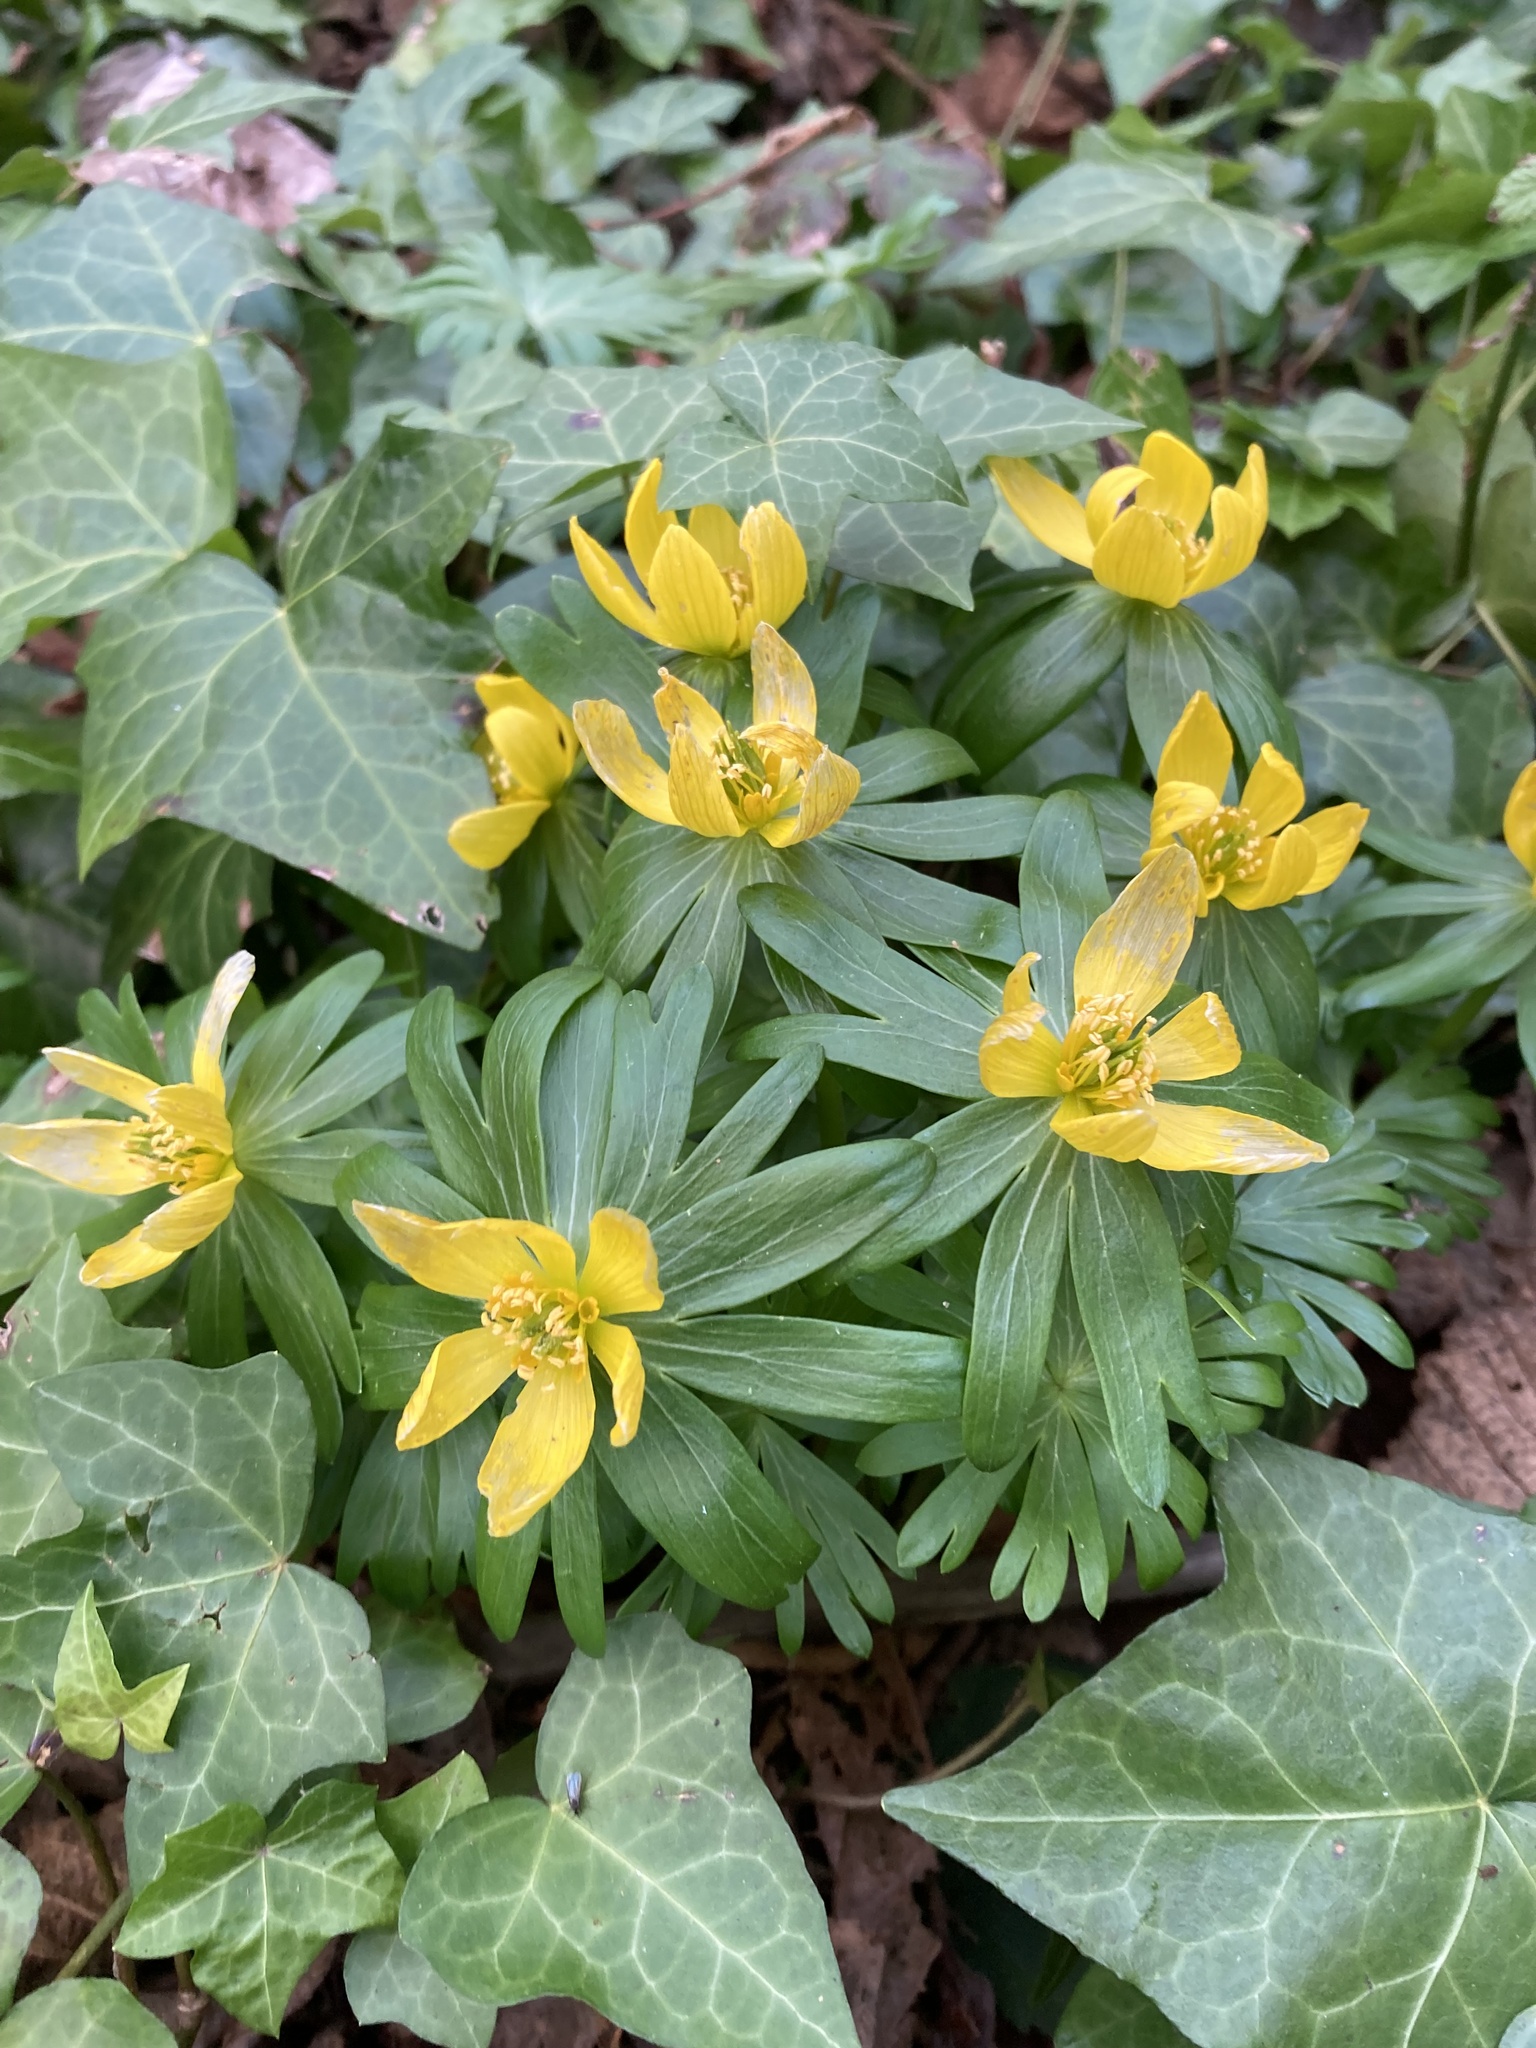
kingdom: Plantae
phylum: Tracheophyta
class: Magnoliopsida
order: Ranunculales
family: Ranunculaceae
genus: Eranthis
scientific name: Eranthis hyemalis
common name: Winter aconite
